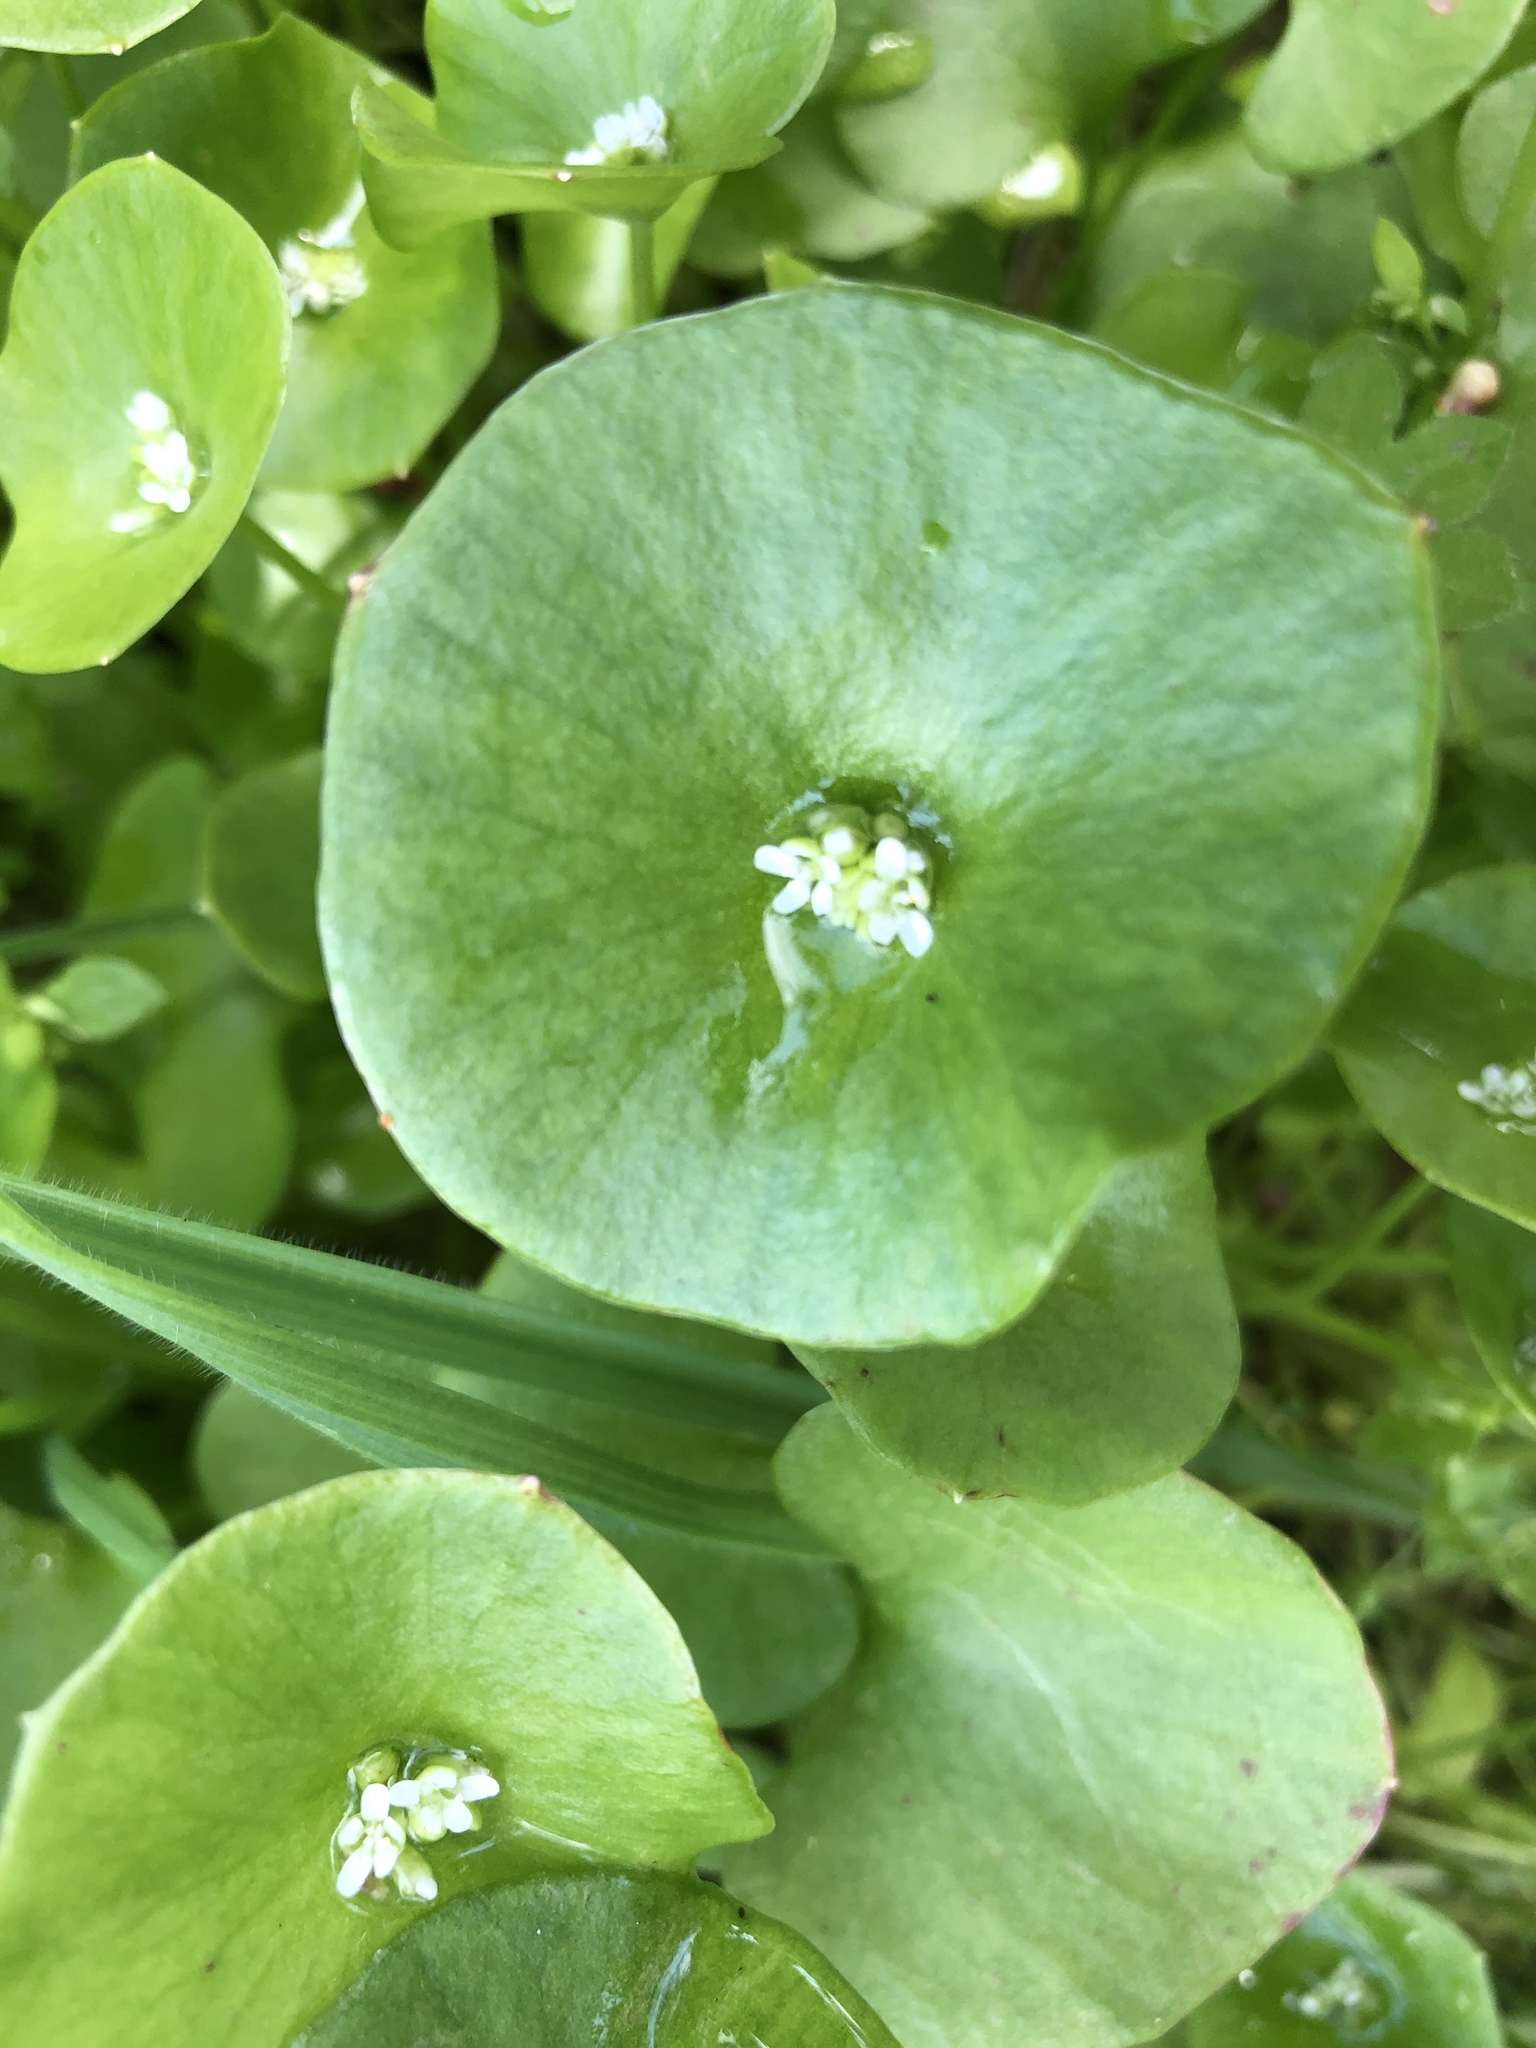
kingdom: Plantae
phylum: Tracheophyta
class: Magnoliopsida
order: Caryophyllales
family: Montiaceae
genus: Claytonia
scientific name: Claytonia perfoliata
